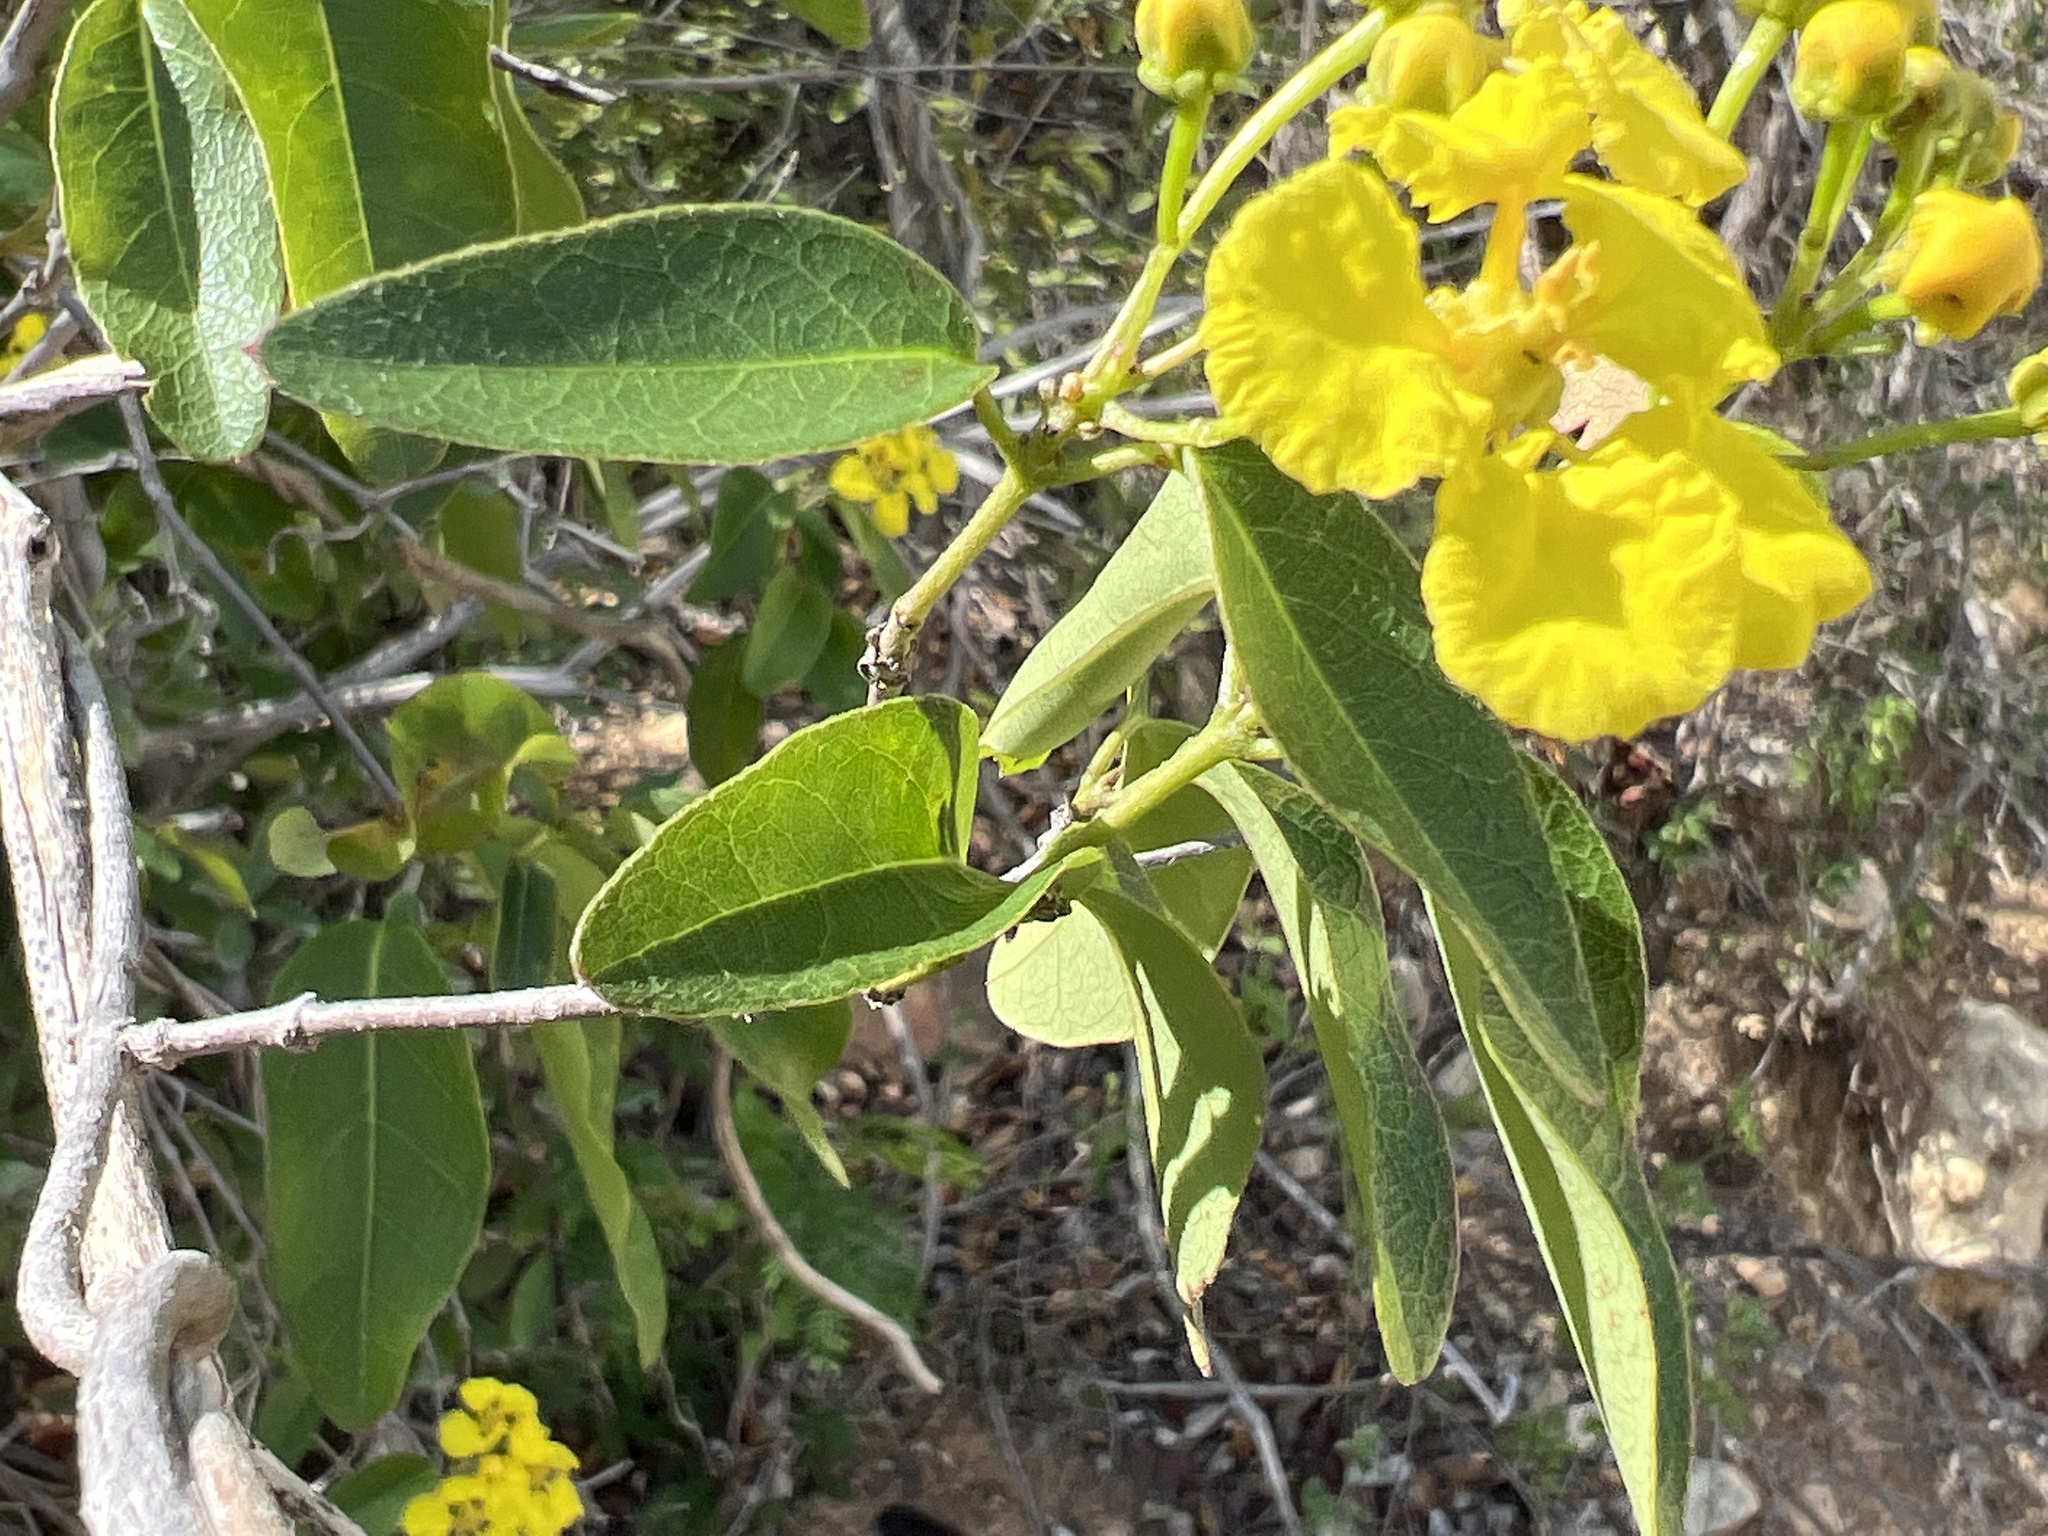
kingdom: Plantae
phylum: Tracheophyta
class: Magnoliopsida
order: Malpighiales
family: Malpighiaceae
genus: Stigmaphyllon
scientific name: Stigmaphyllon emarginatum
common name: Monarch amazonvine
